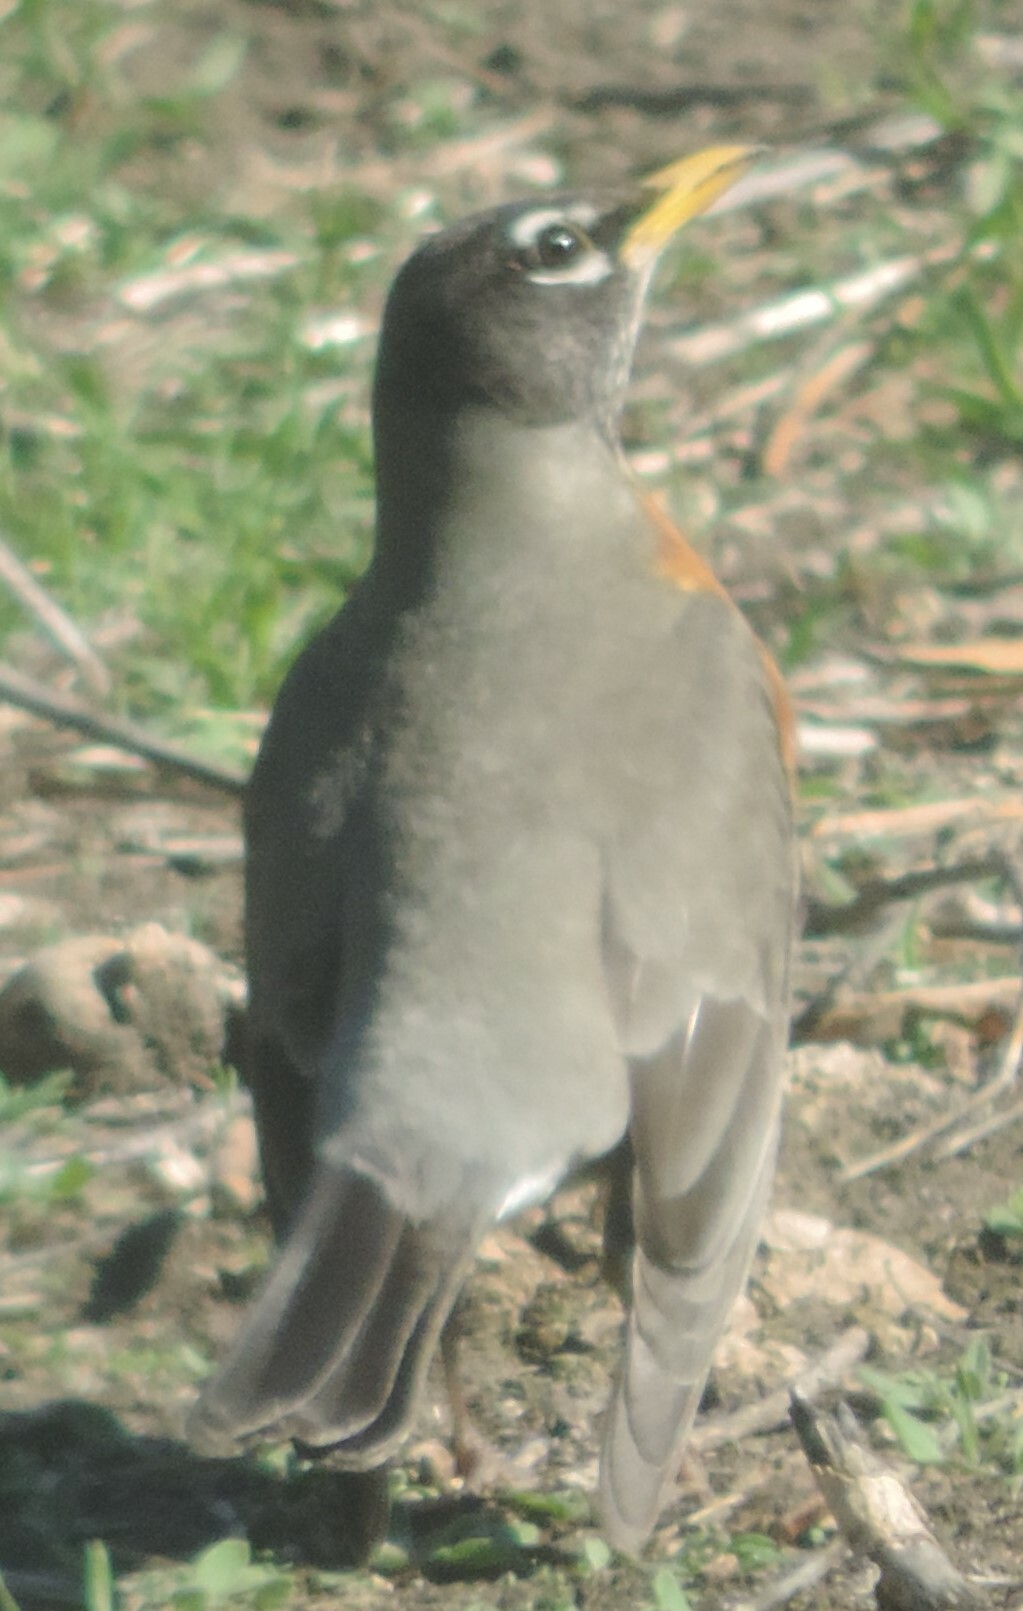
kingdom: Animalia
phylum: Chordata
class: Aves
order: Passeriformes
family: Turdidae
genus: Turdus
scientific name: Turdus migratorius
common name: American robin
